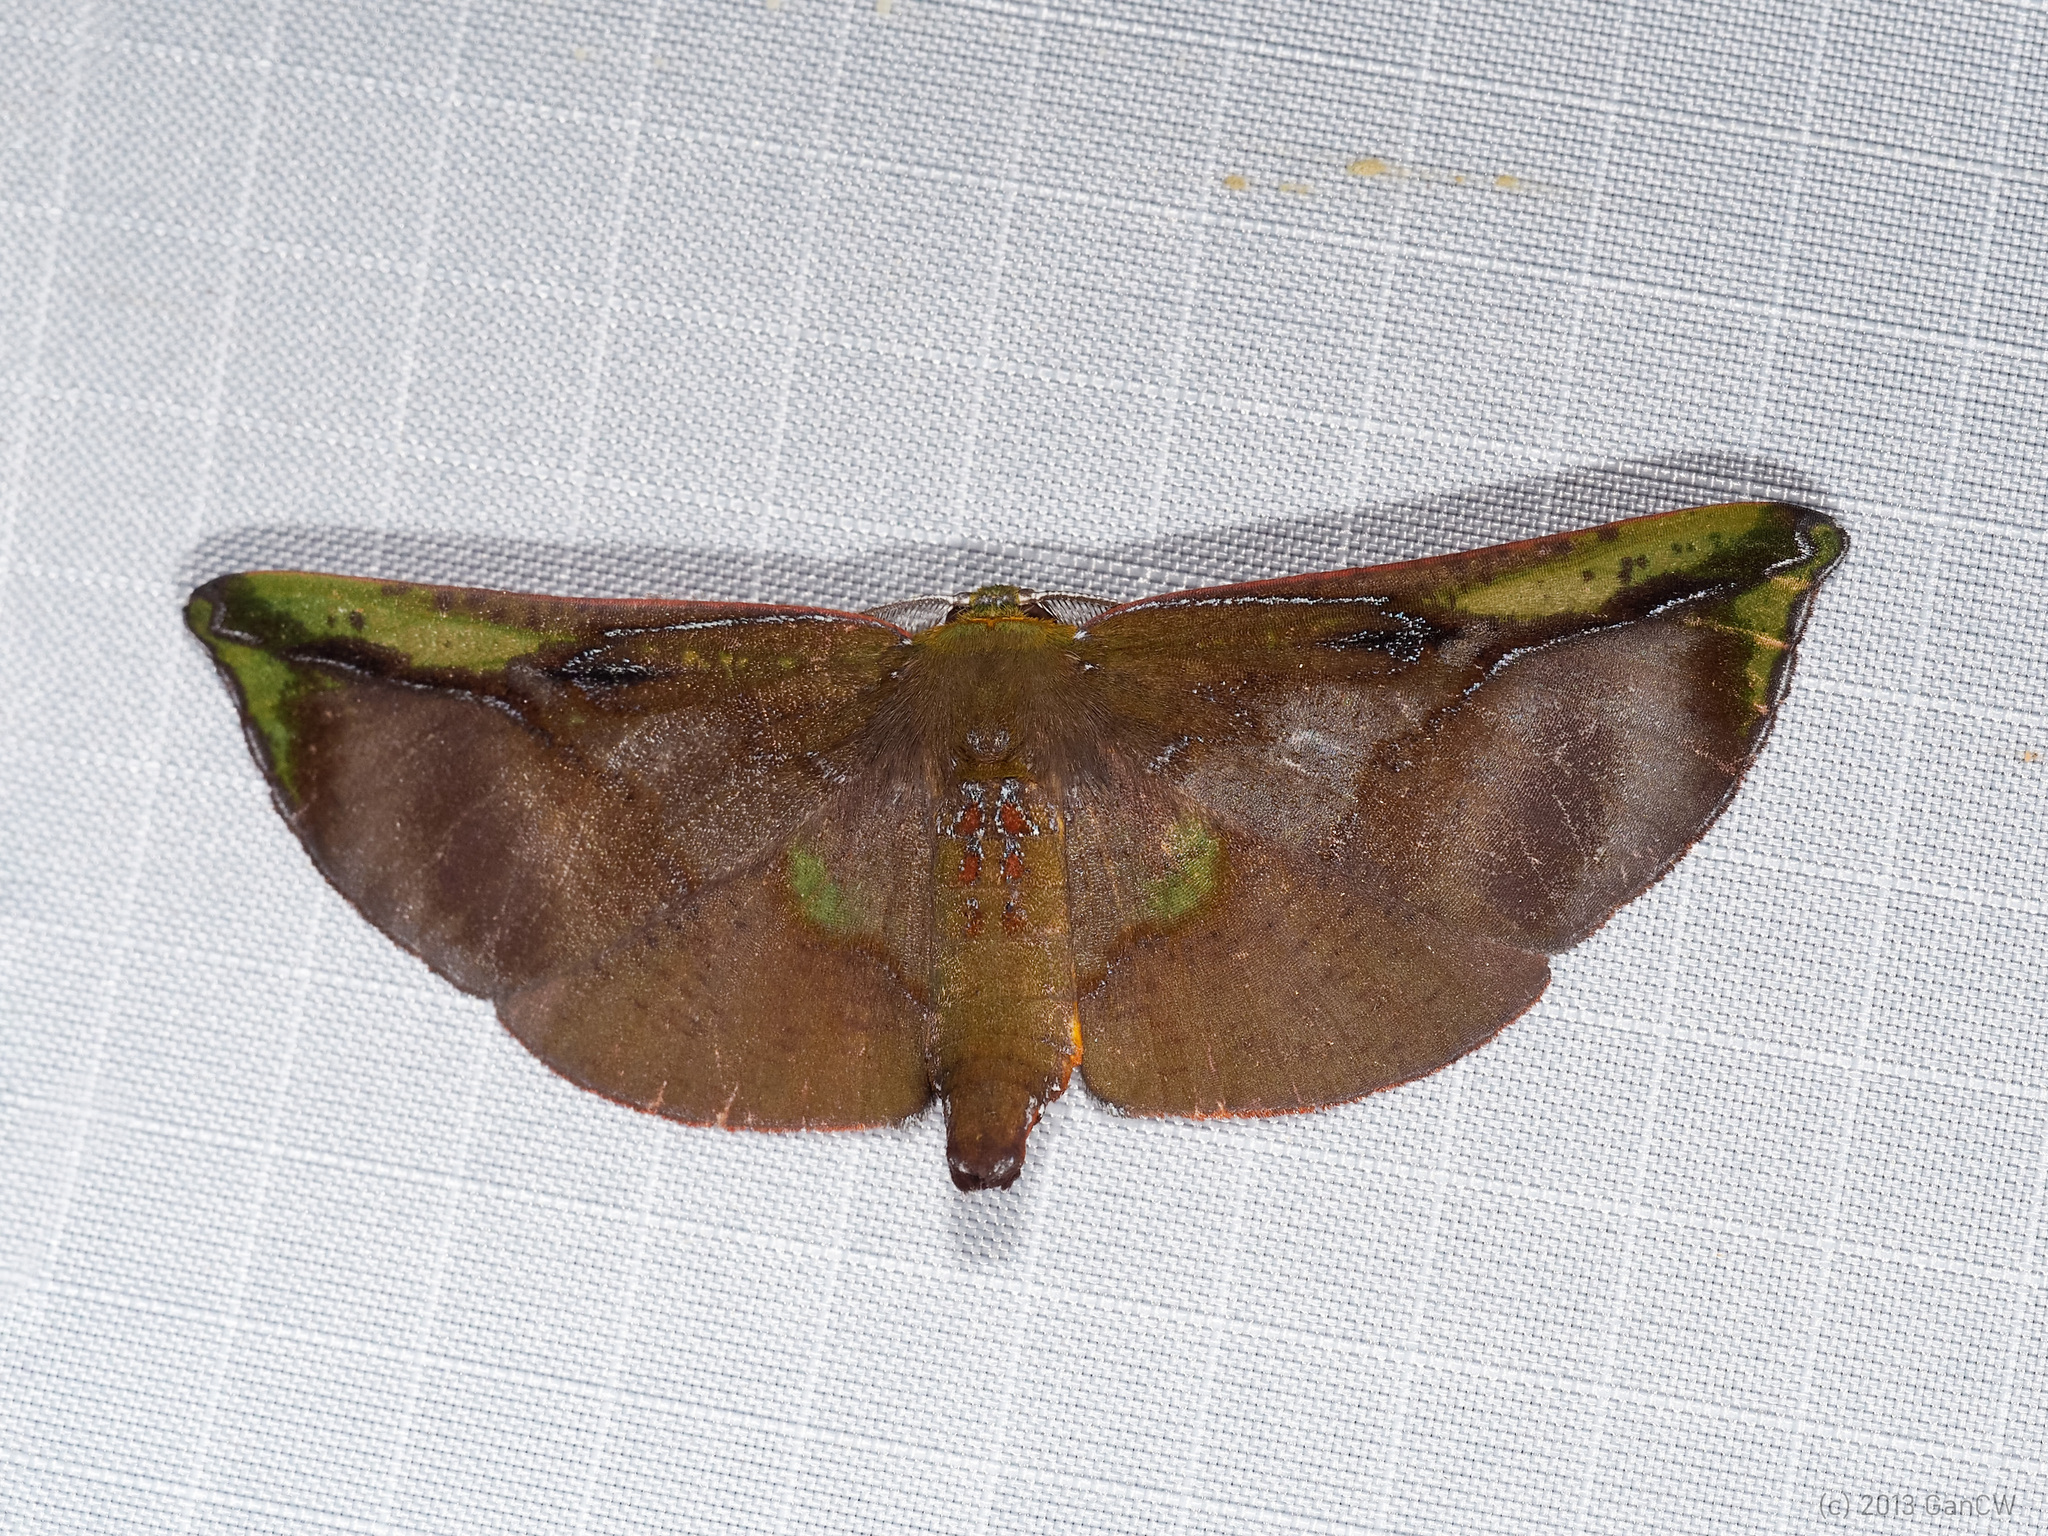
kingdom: Animalia
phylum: Arthropoda
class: Insecta
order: Lepidoptera
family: Geometridae
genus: Omiza
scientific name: Omiza lycoraria
